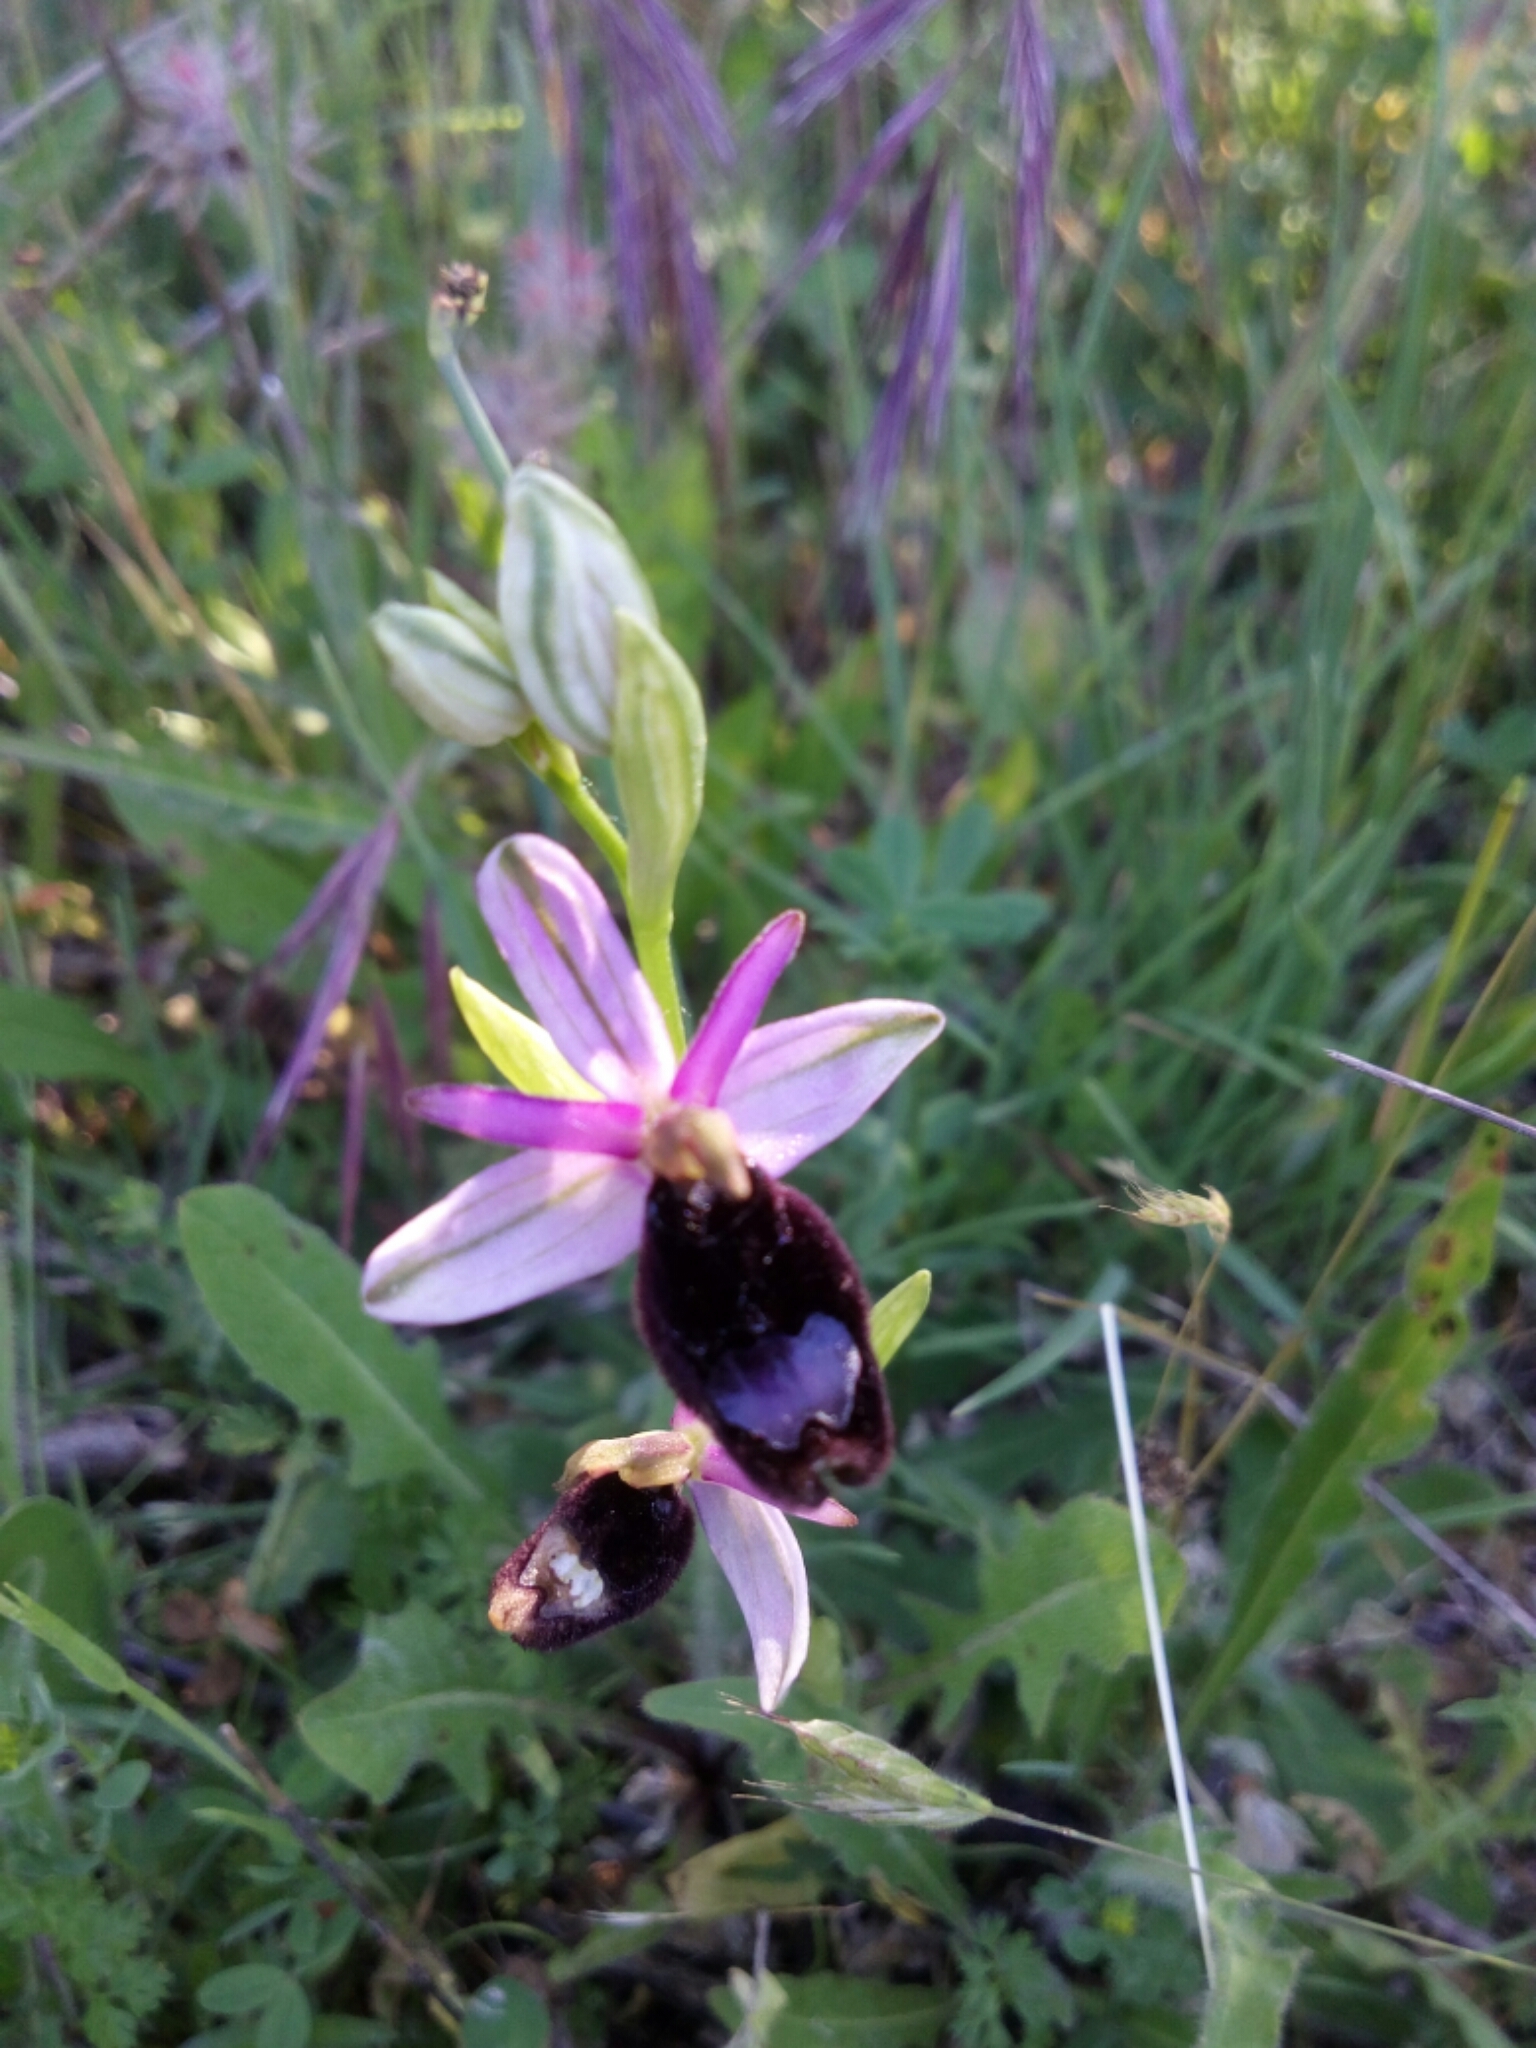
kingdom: Plantae
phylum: Tracheophyta
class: Liliopsida
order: Asparagales
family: Orchidaceae
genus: Ophrys
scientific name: Ophrys bertolonii
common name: Bertoloni's bee orchid
